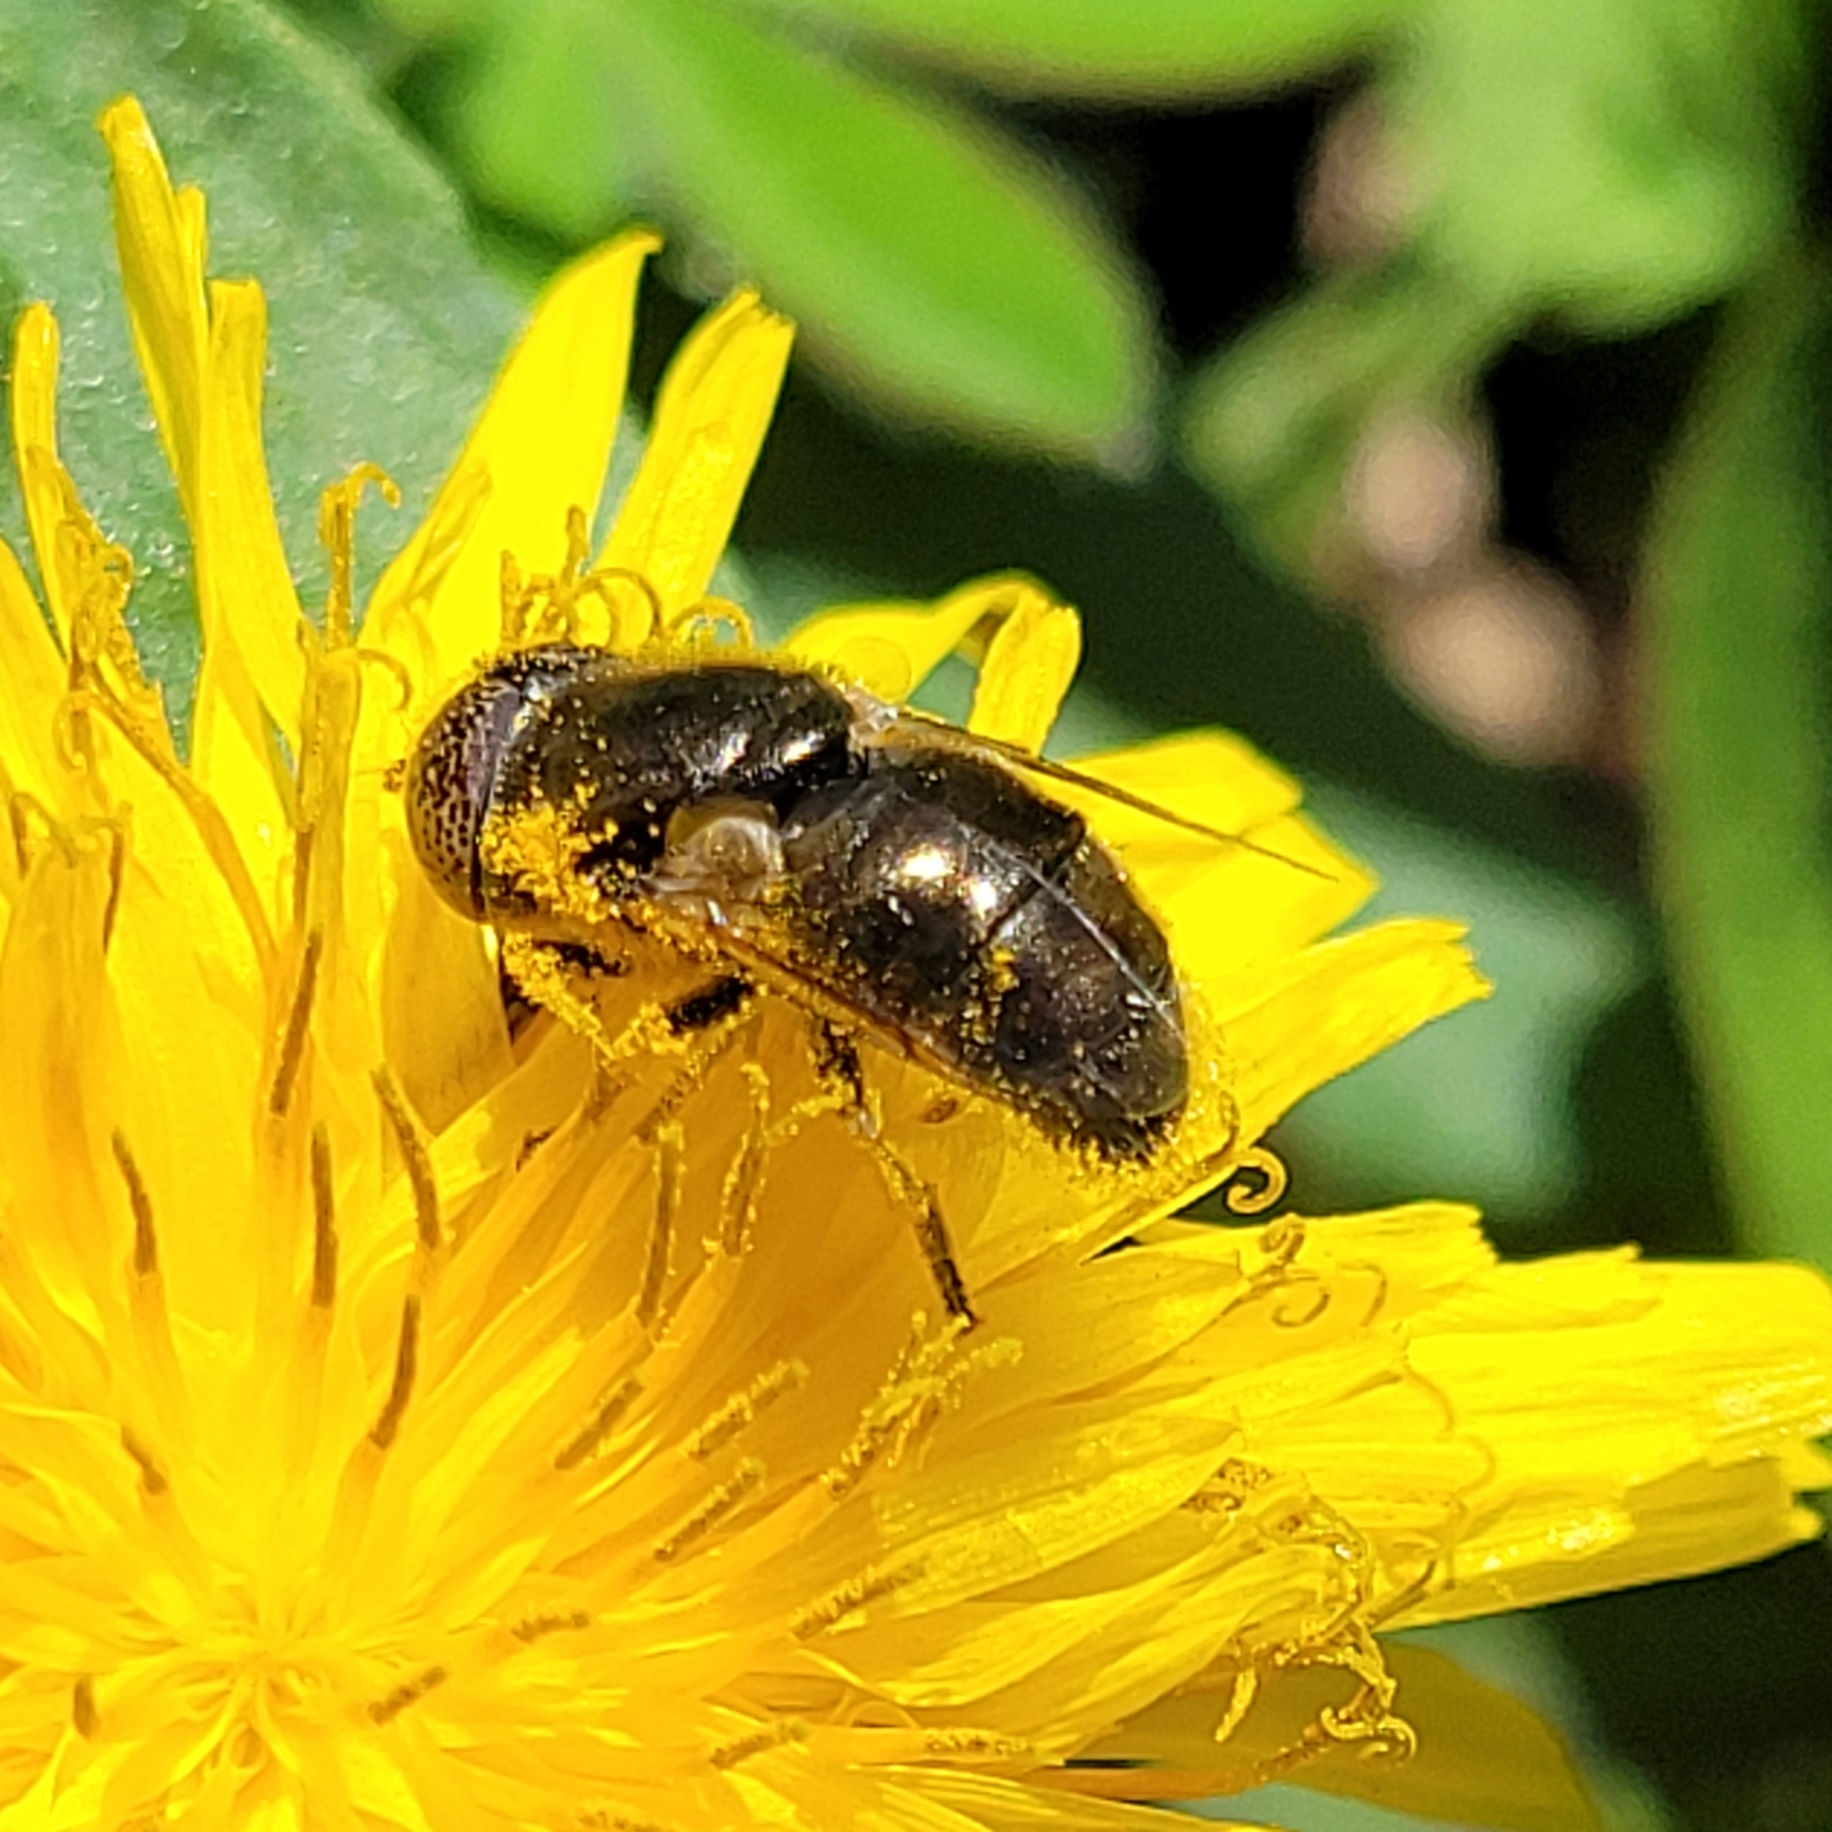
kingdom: Animalia
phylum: Arthropoda
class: Insecta
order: Diptera
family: Syrphidae
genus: Eristalinus
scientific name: Eristalinus aeneus
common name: Syrphid fly
